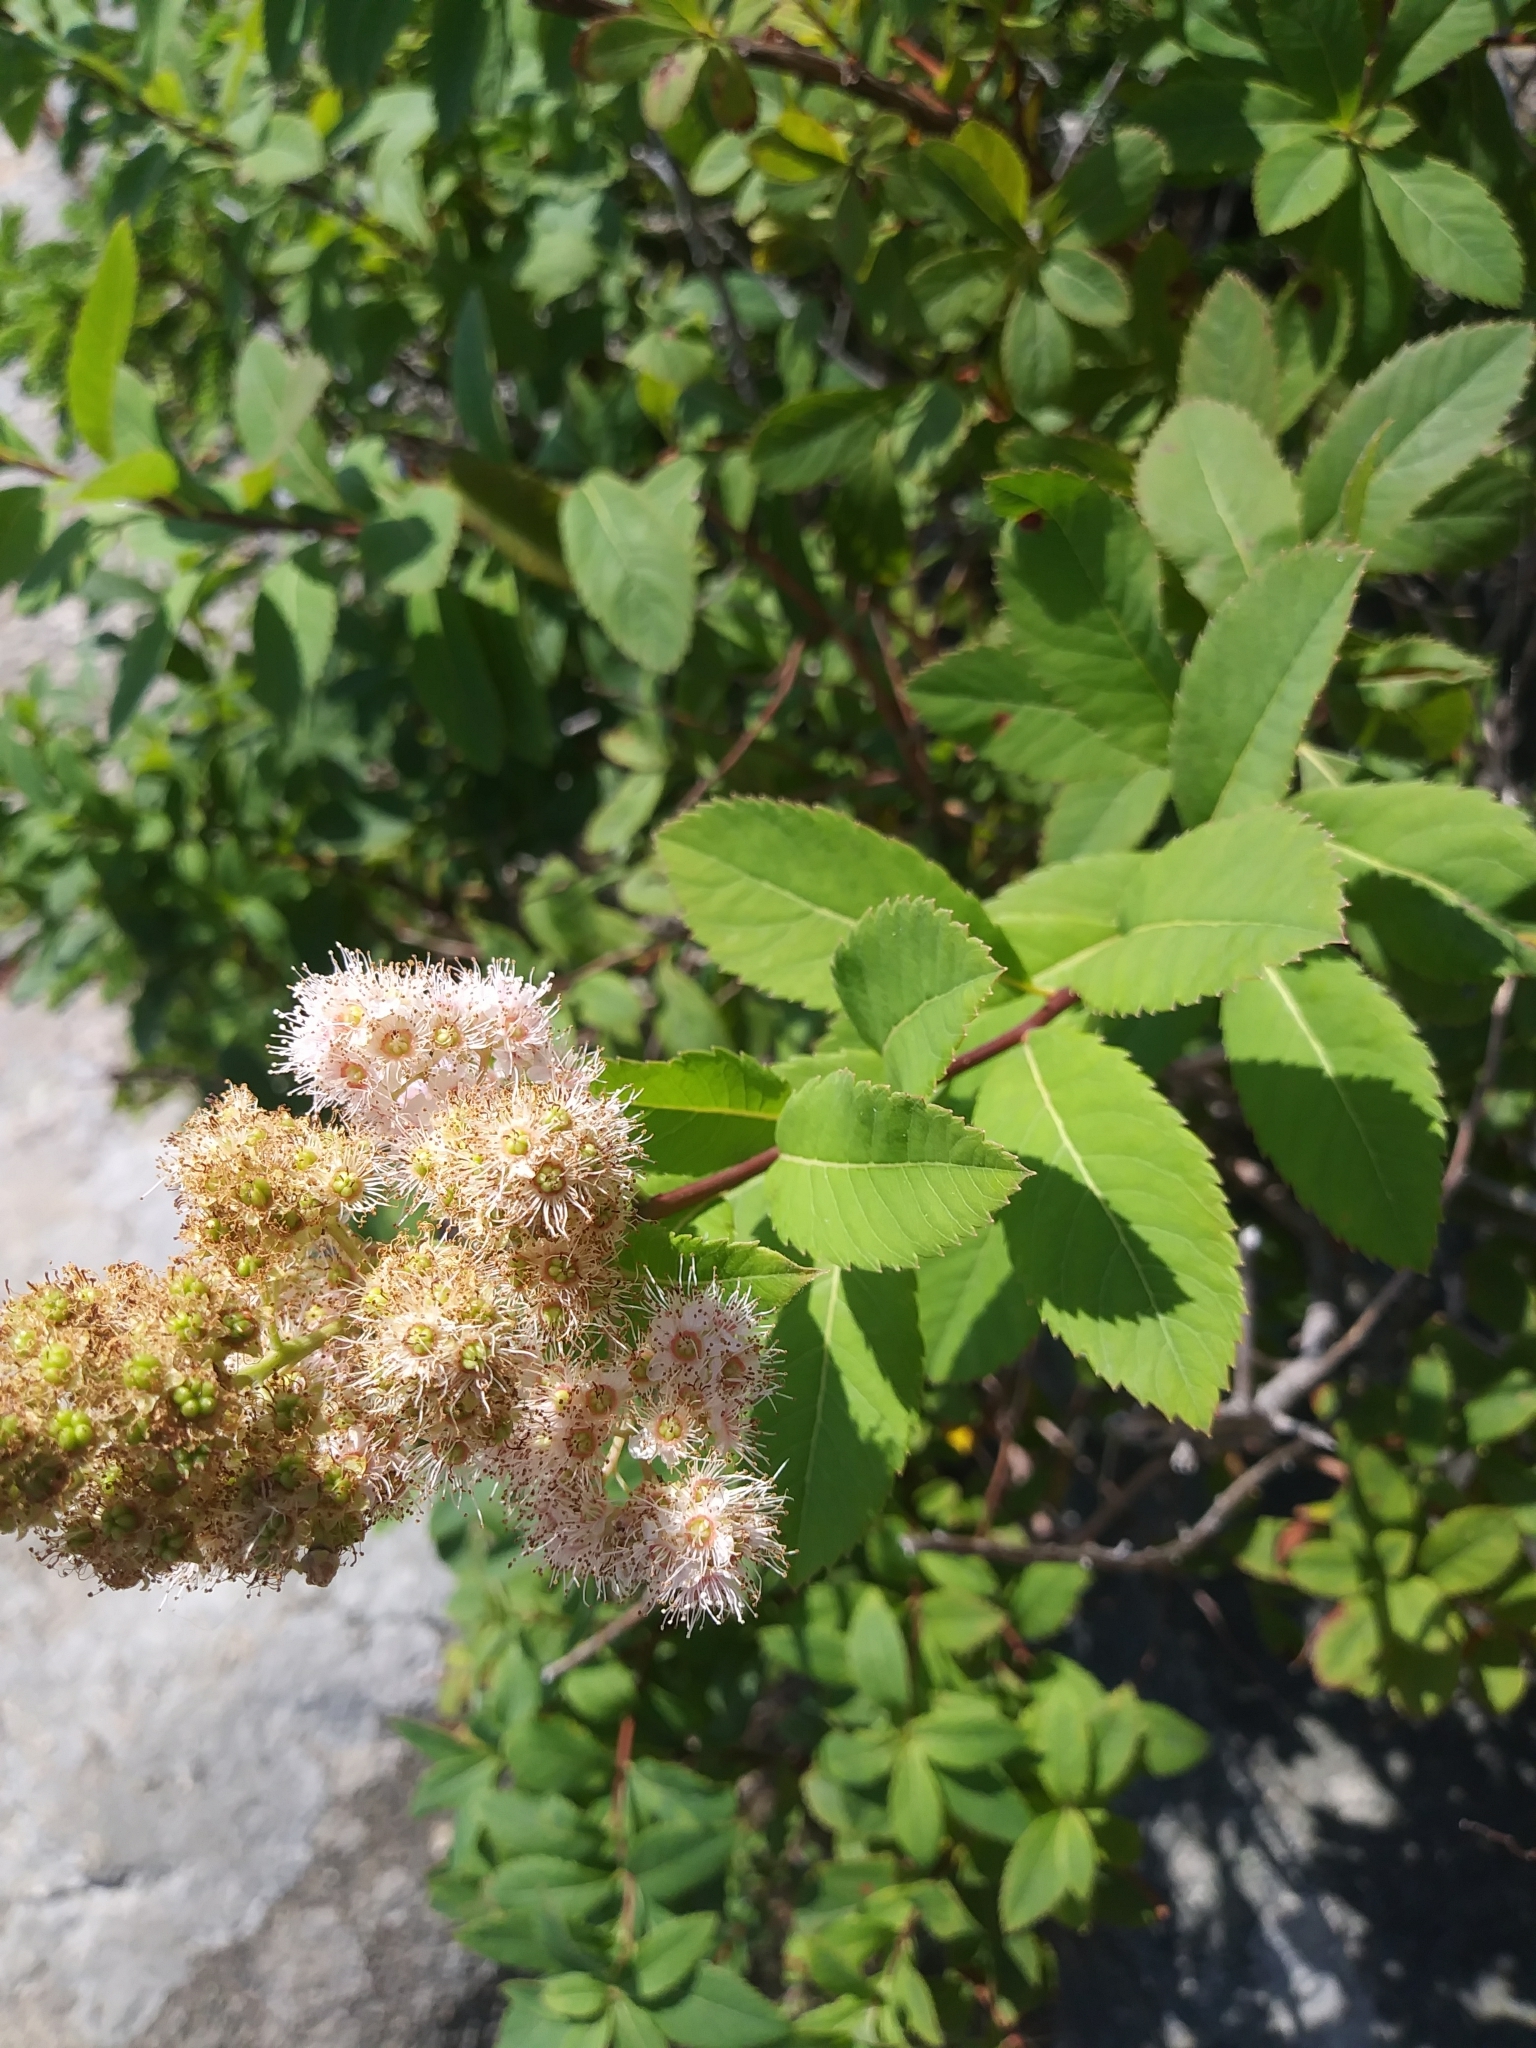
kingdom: Plantae
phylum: Tracheophyta
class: Magnoliopsida
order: Rosales
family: Rosaceae
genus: Spiraea
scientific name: Spiraea alba
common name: Pale bridewort
